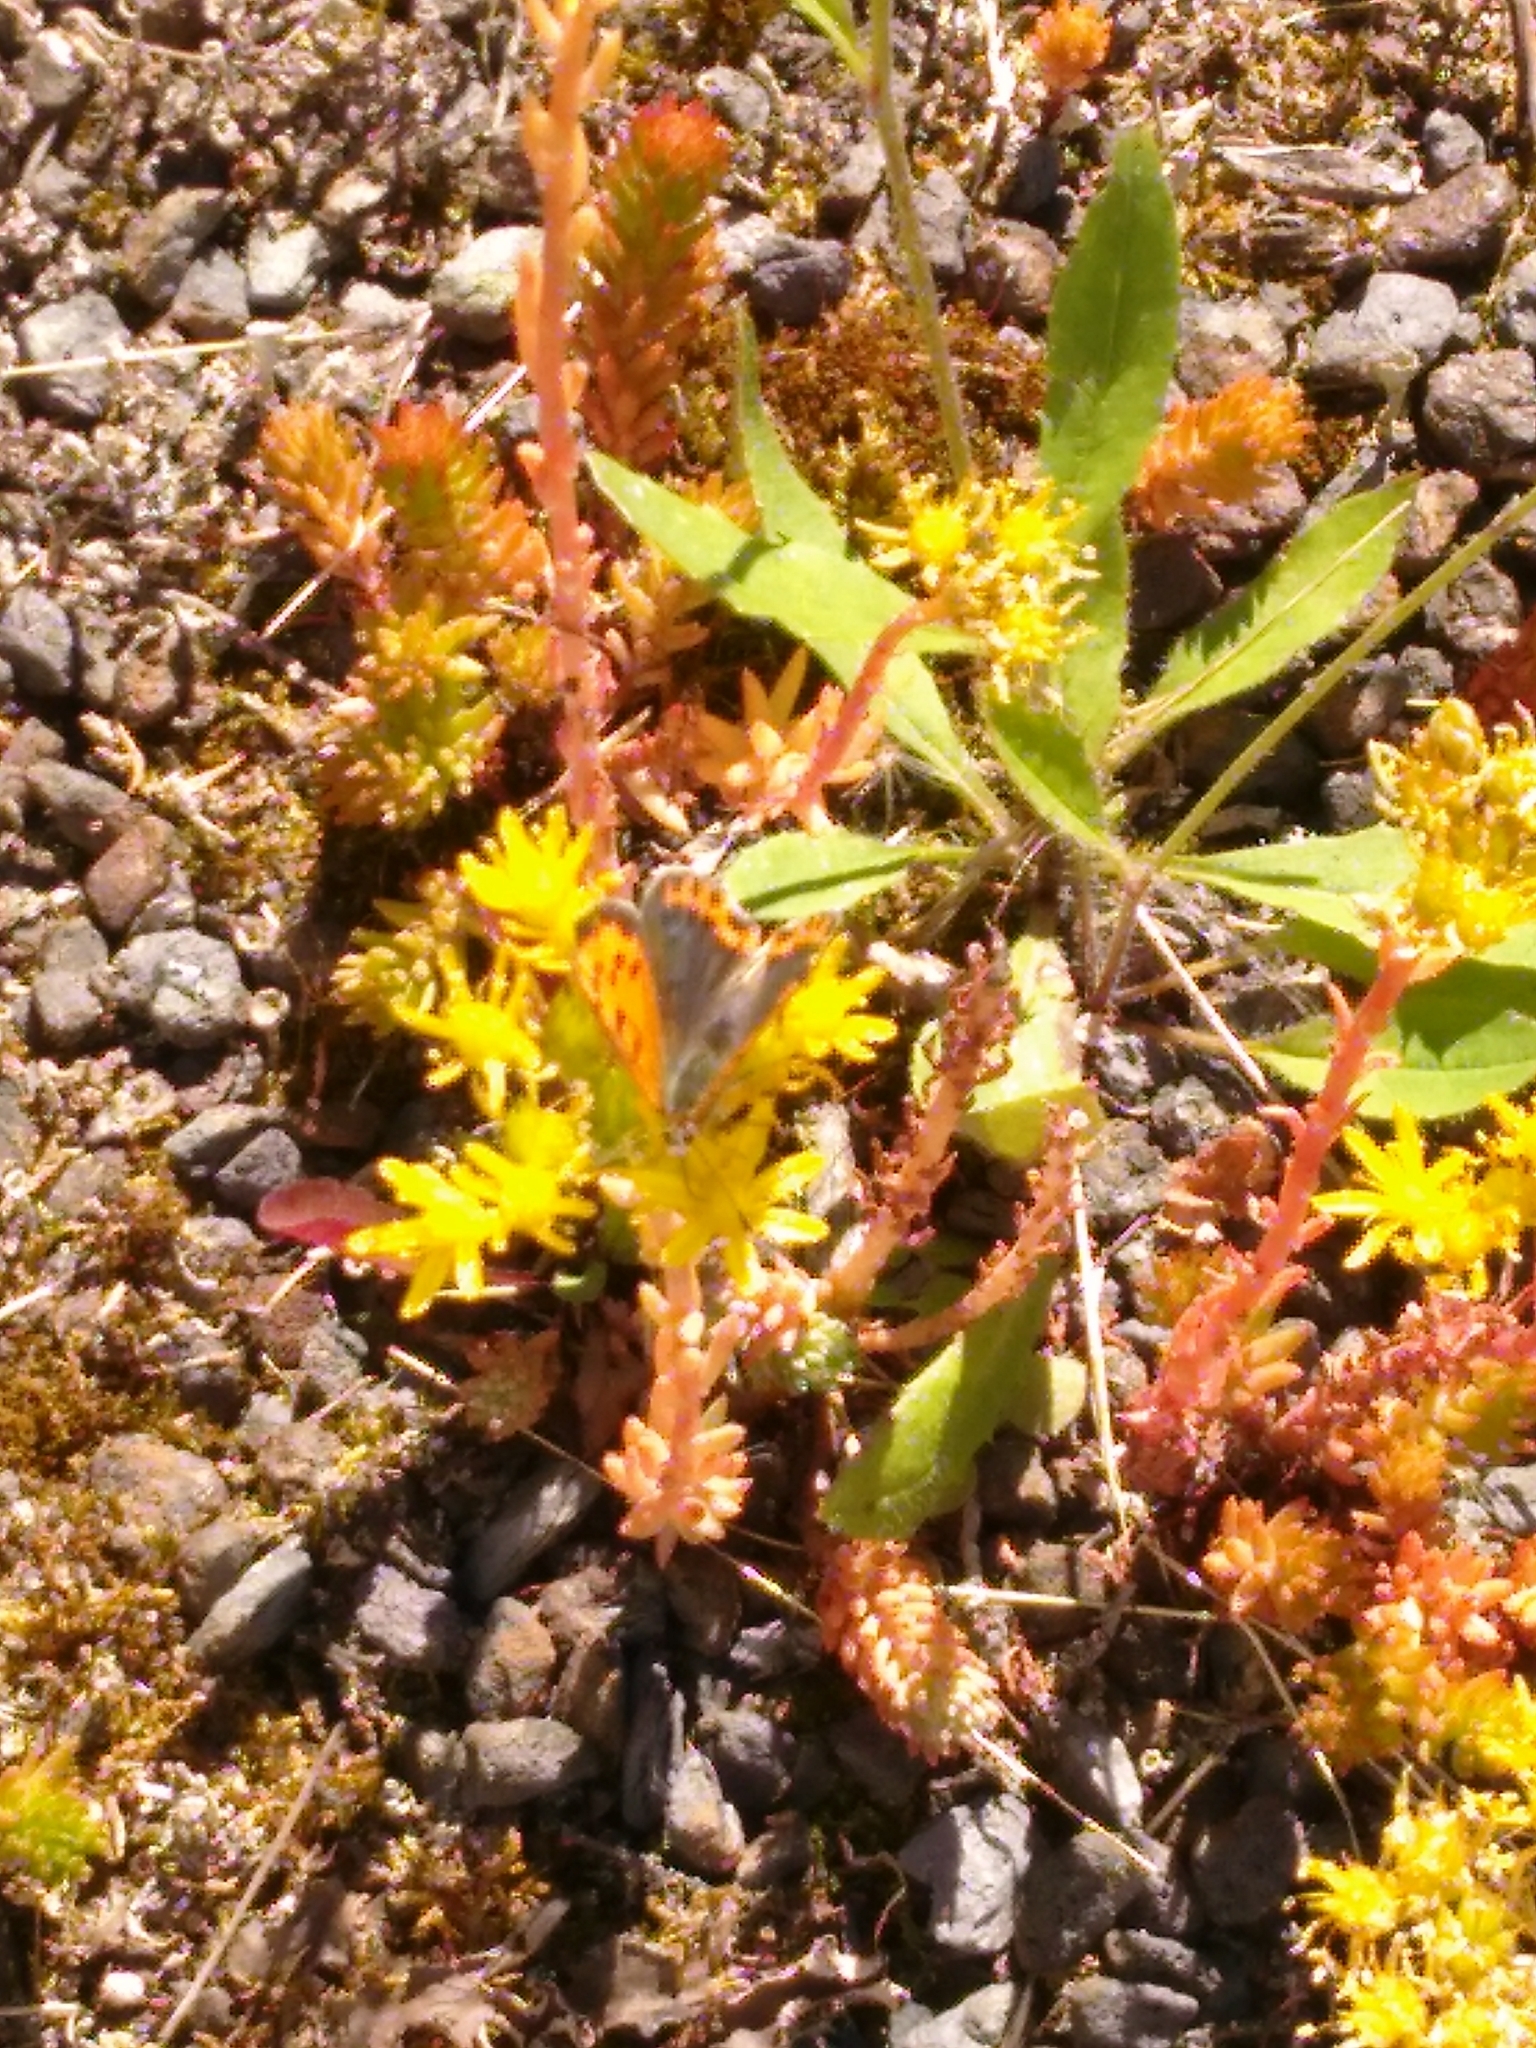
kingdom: Animalia
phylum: Arthropoda
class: Insecta
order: Lepidoptera
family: Lycaenidae
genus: Lycaena
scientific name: Lycaena phlaeas
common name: Small copper
